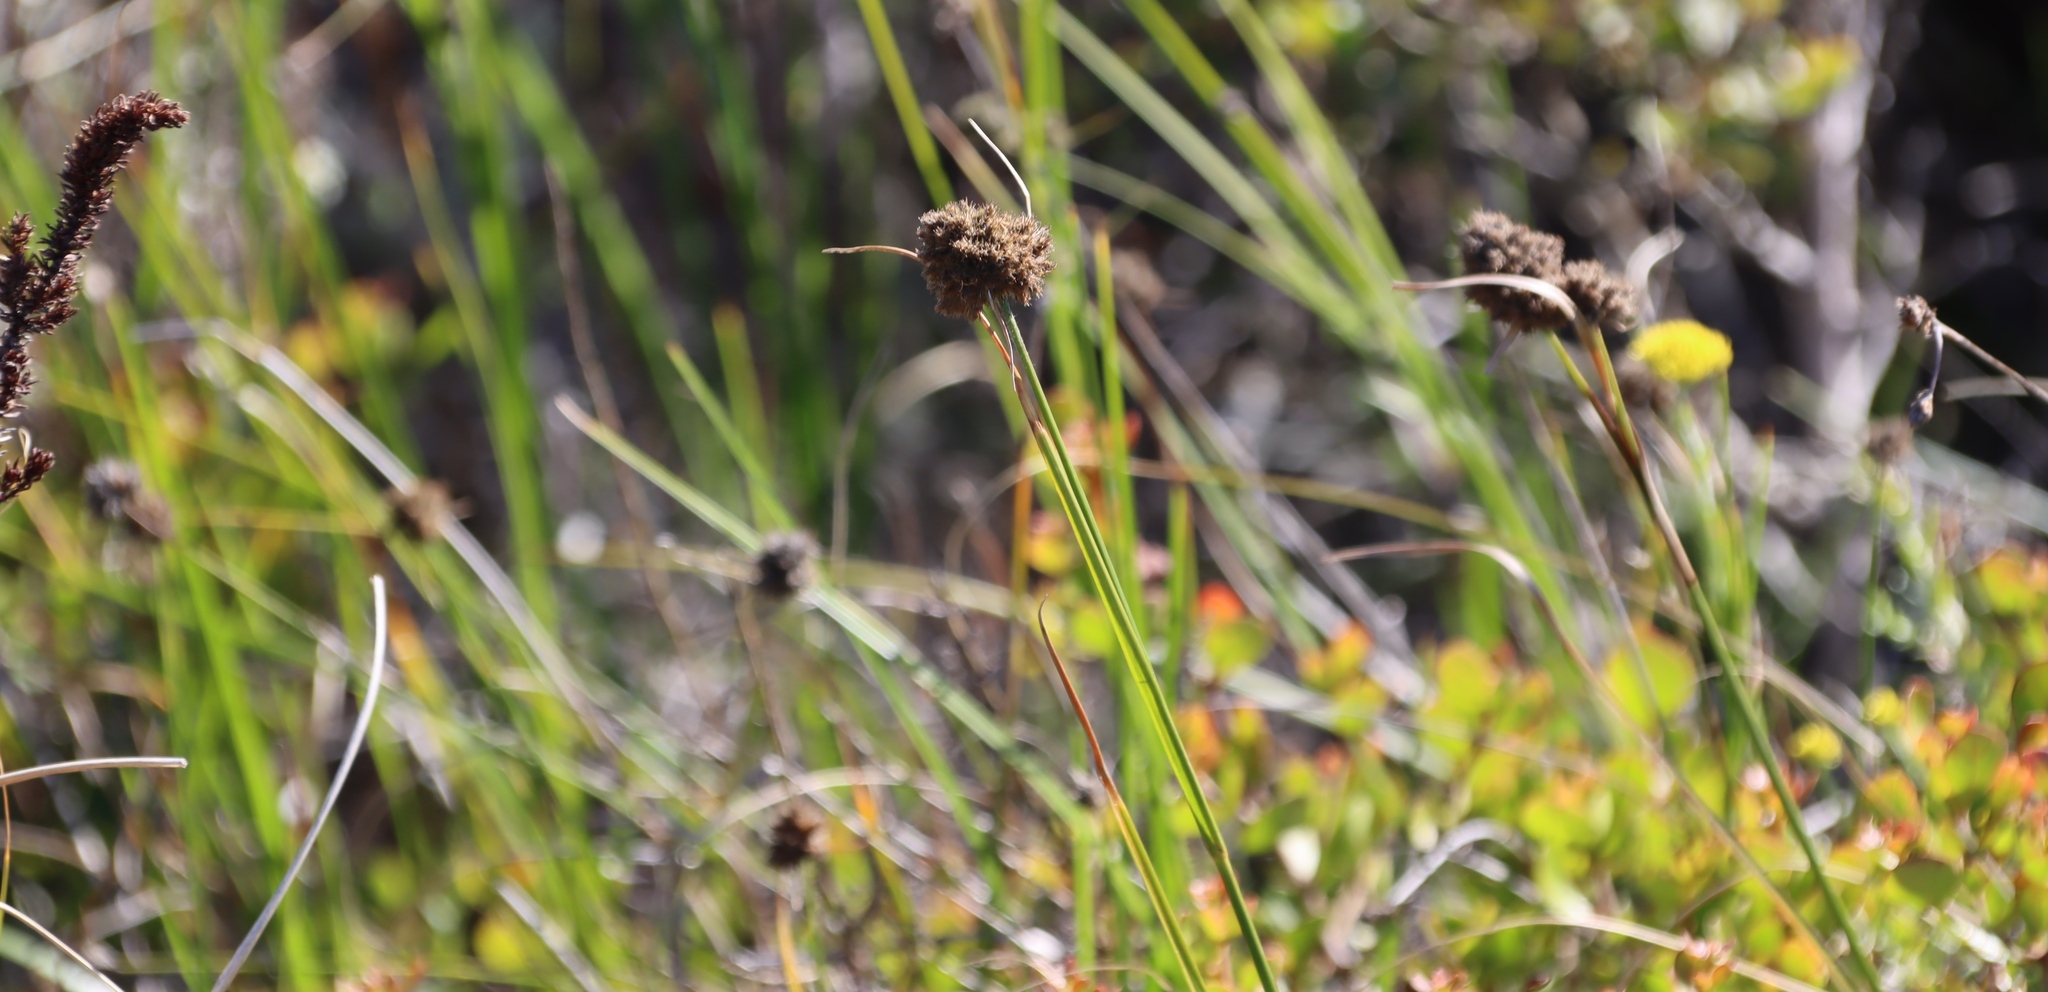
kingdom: Plantae
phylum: Tracheophyta
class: Liliopsida
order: Poales
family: Cyperaceae
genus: Fuirena
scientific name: Fuirena hirsuta
